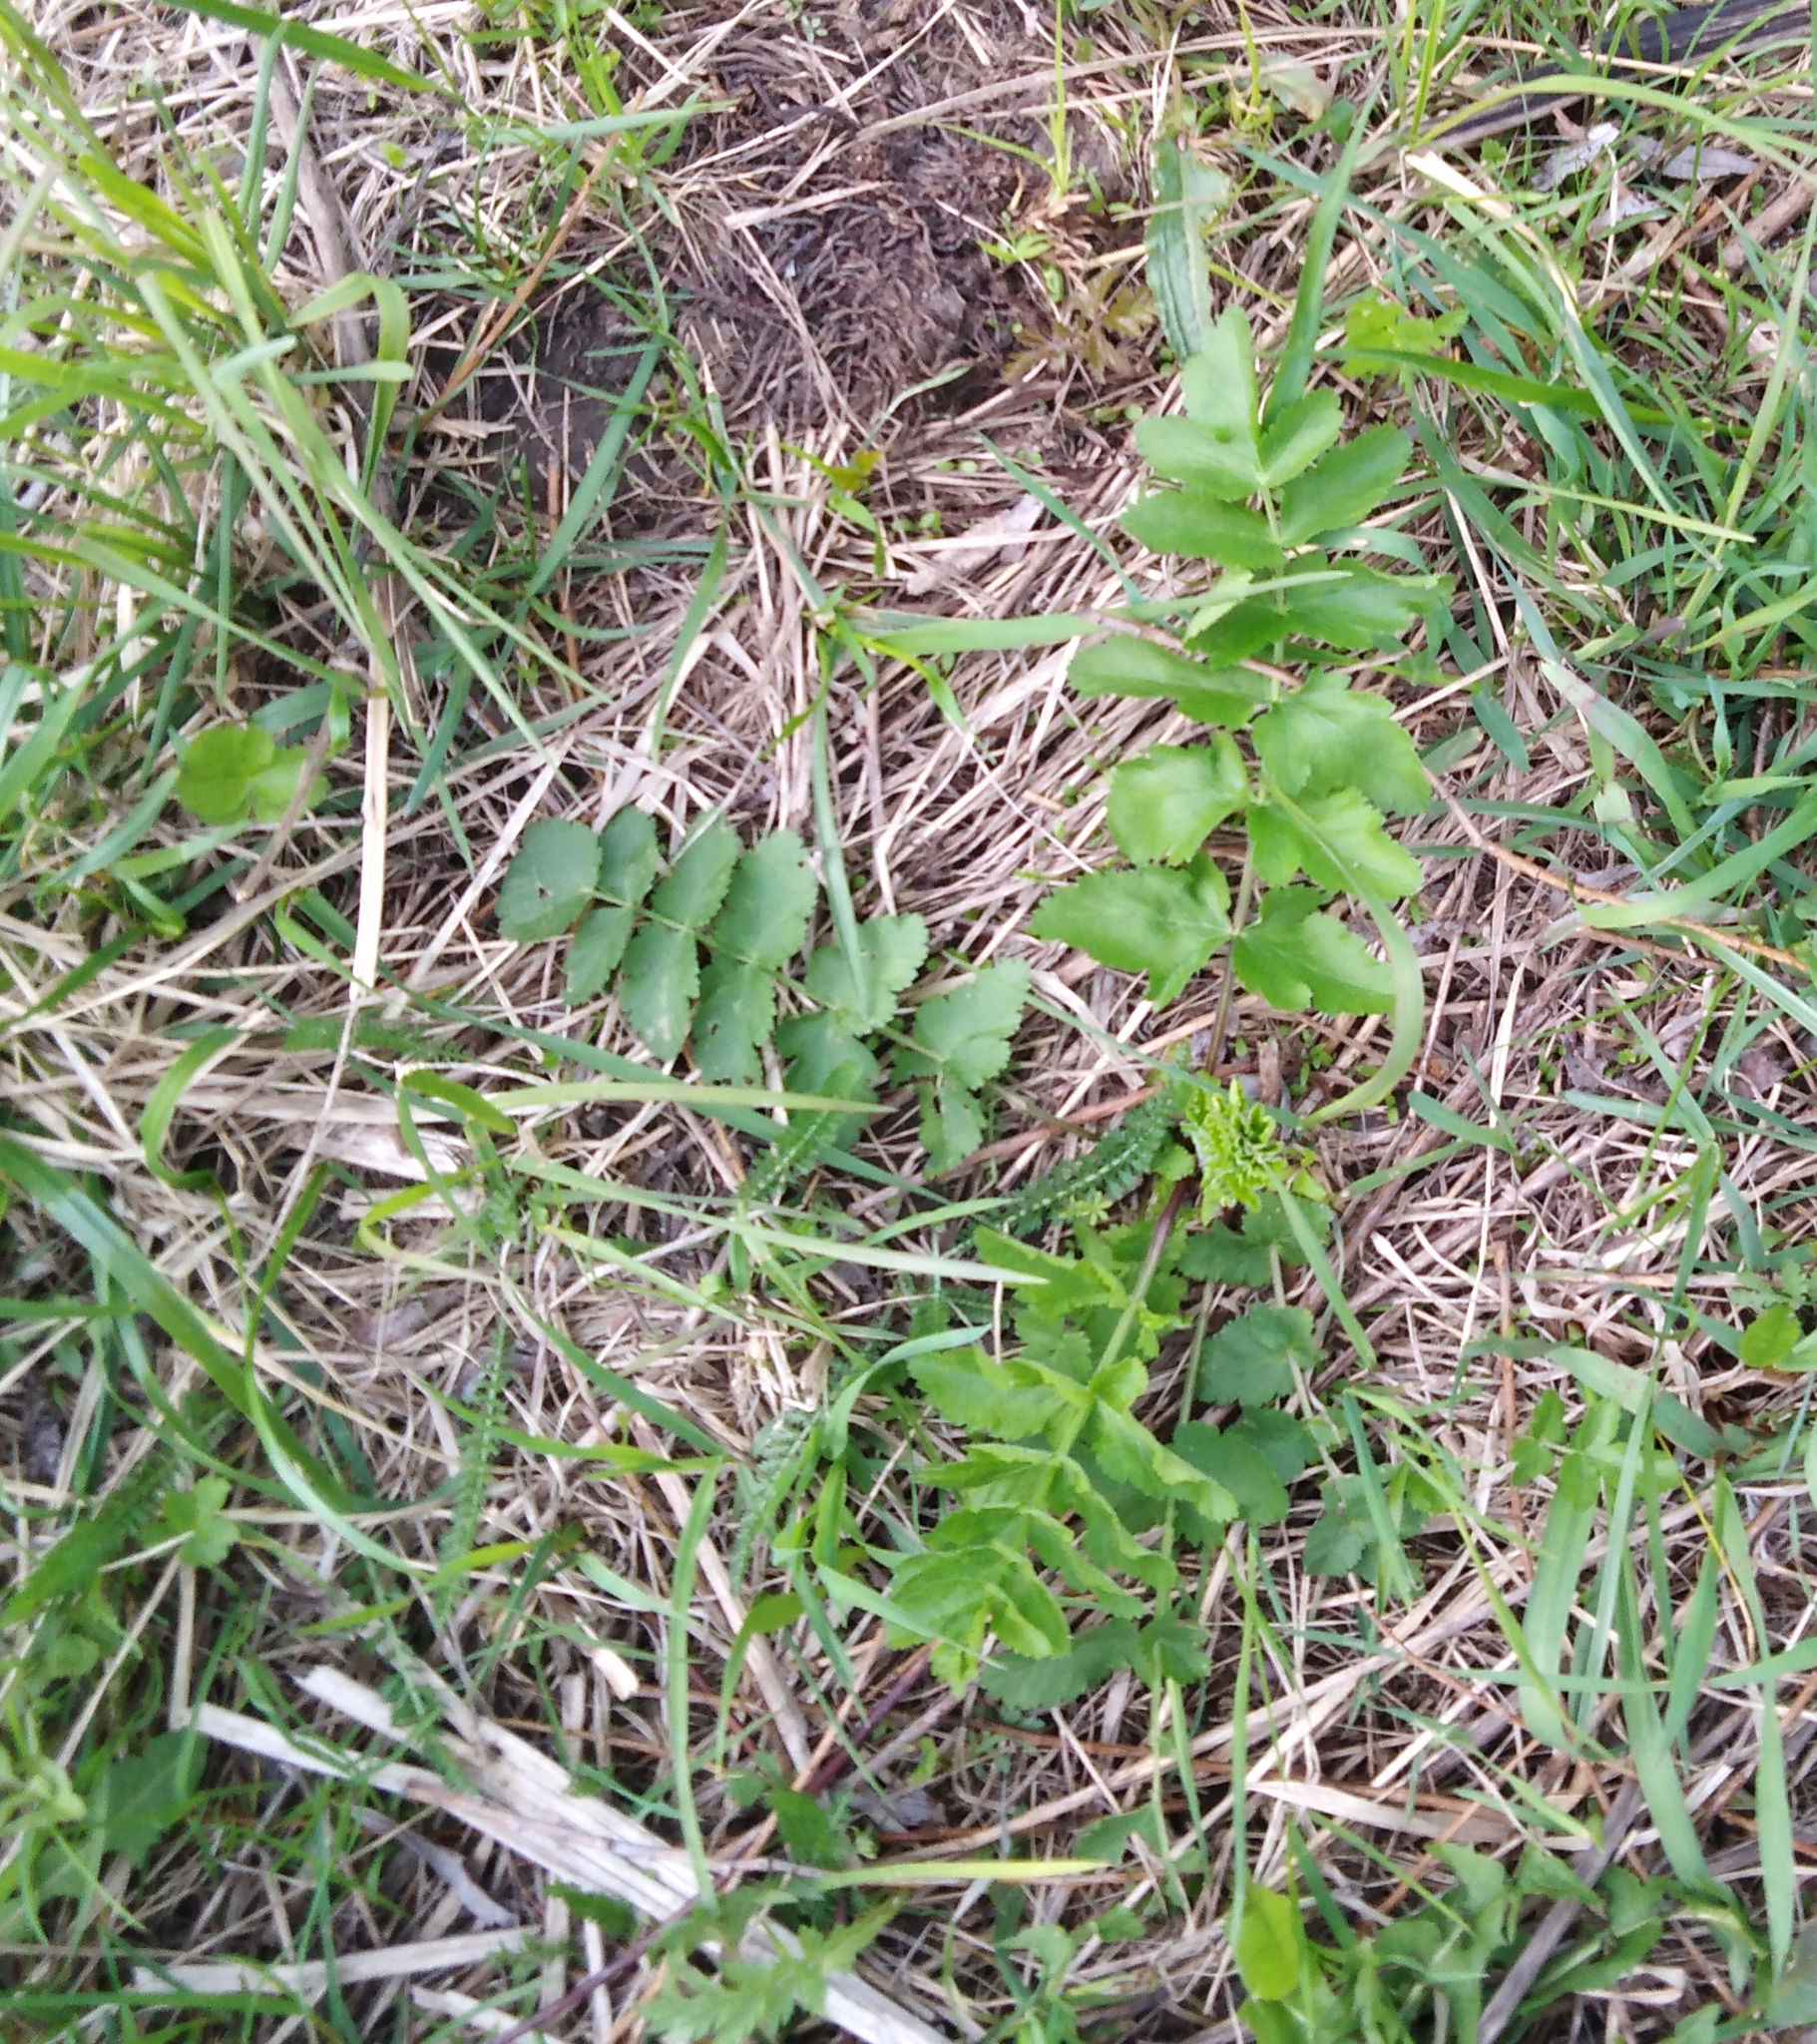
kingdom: Plantae
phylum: Tracheophyta
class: Magnoliopsida
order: Apiales
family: Apiaceae
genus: Pimpinella
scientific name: Pimpinella saxifraga
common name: Burnet-saxifrage
